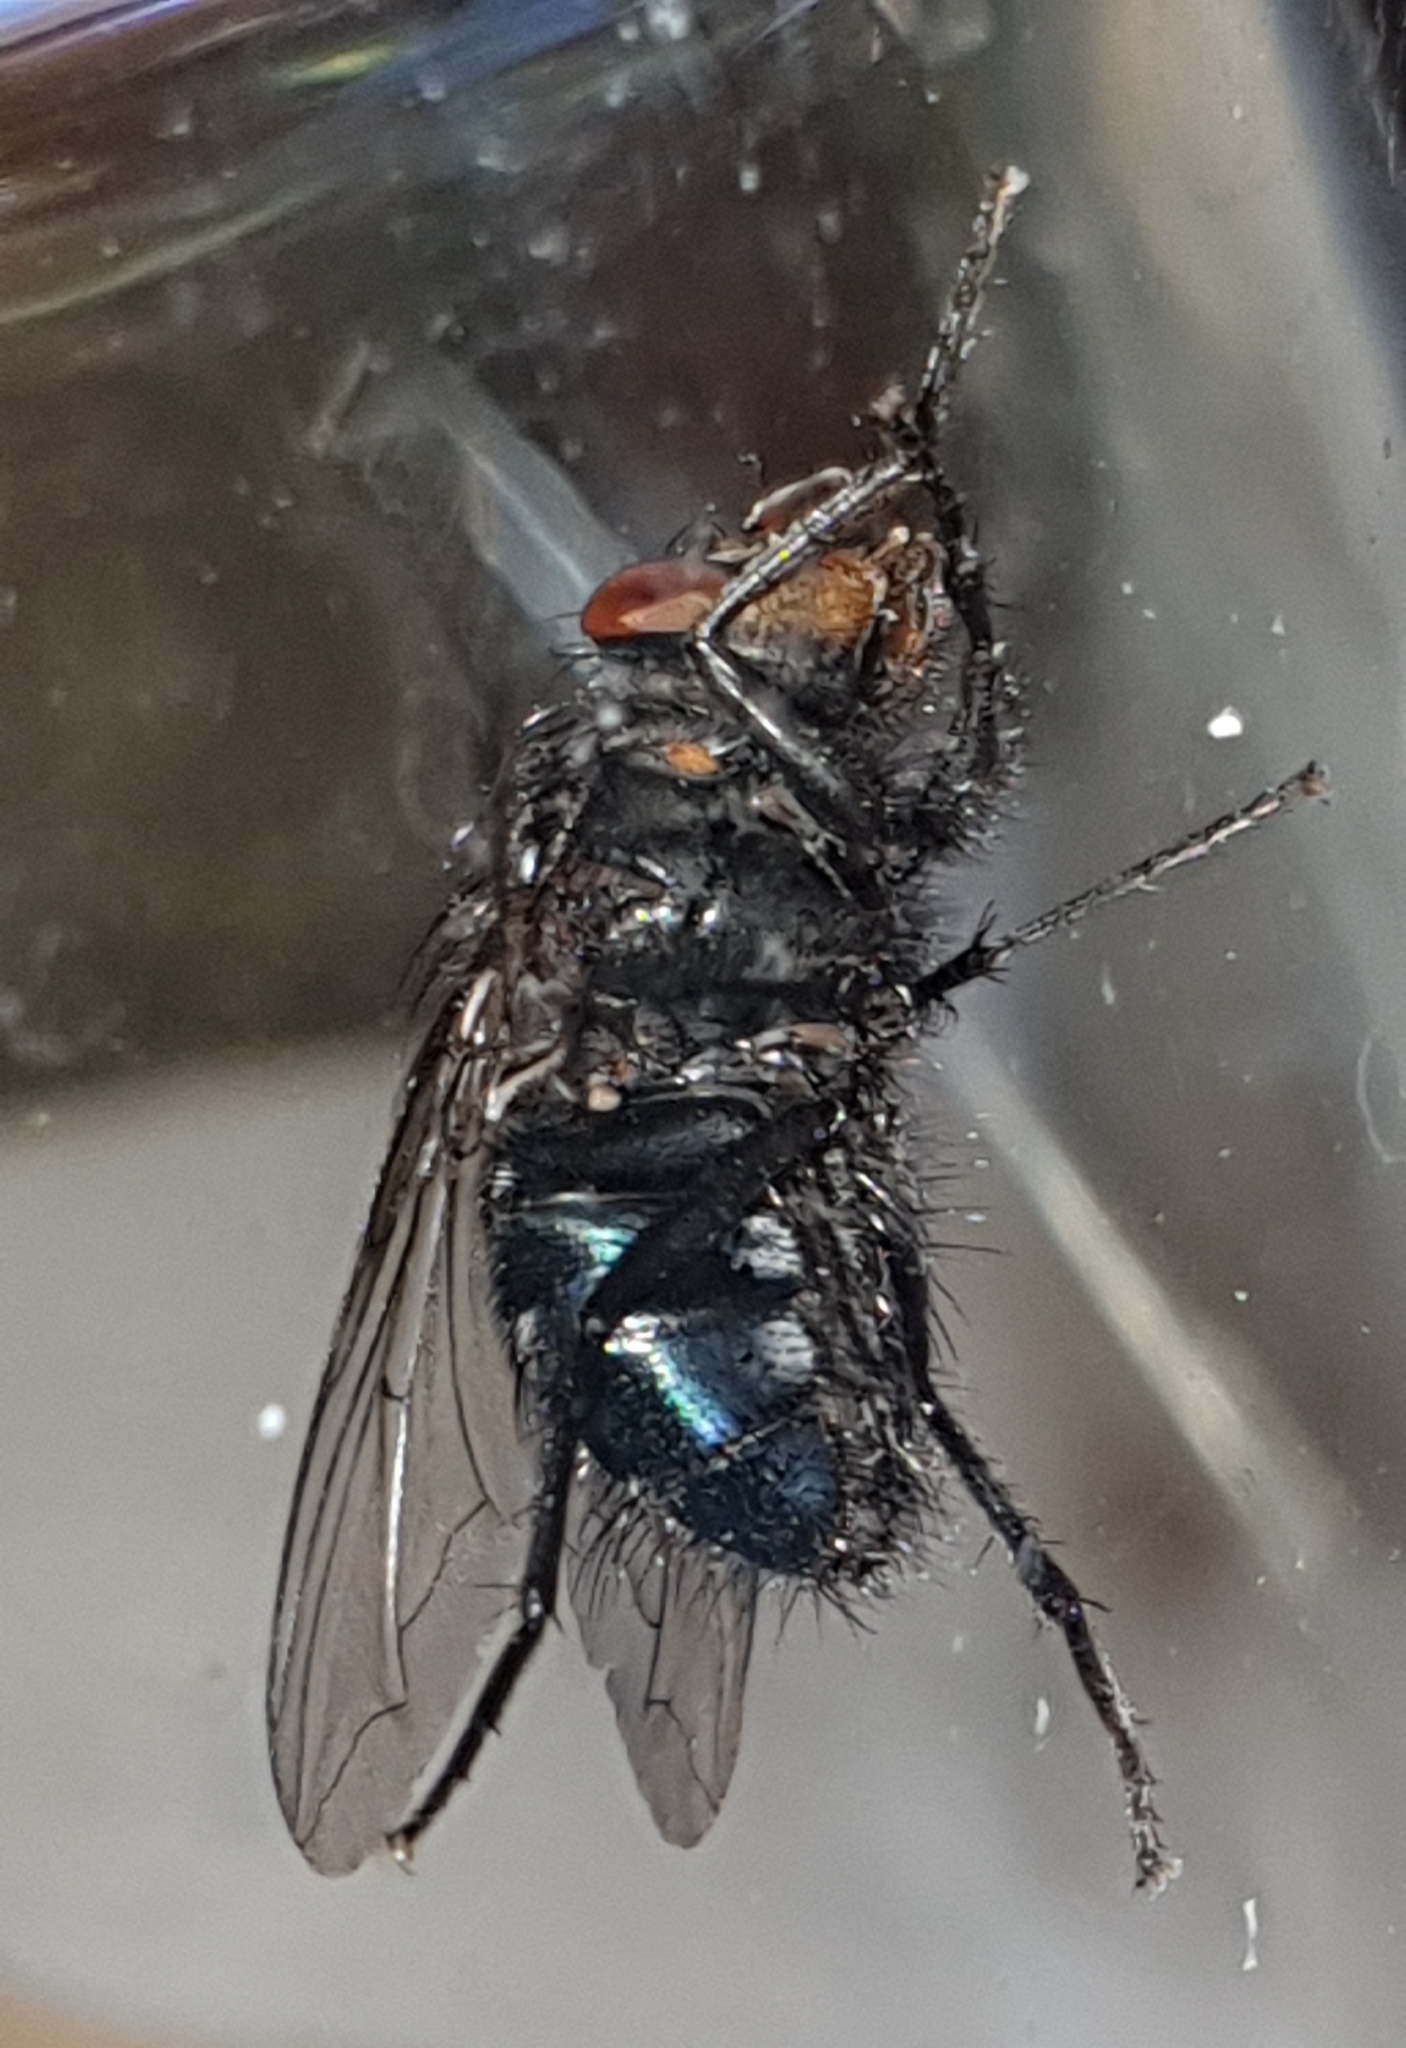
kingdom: Animalia
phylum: Arthropoda
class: Insecta
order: Diptera
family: Calliphoridae
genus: Calliphora
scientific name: Calliphora vicina
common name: Common blow flie
